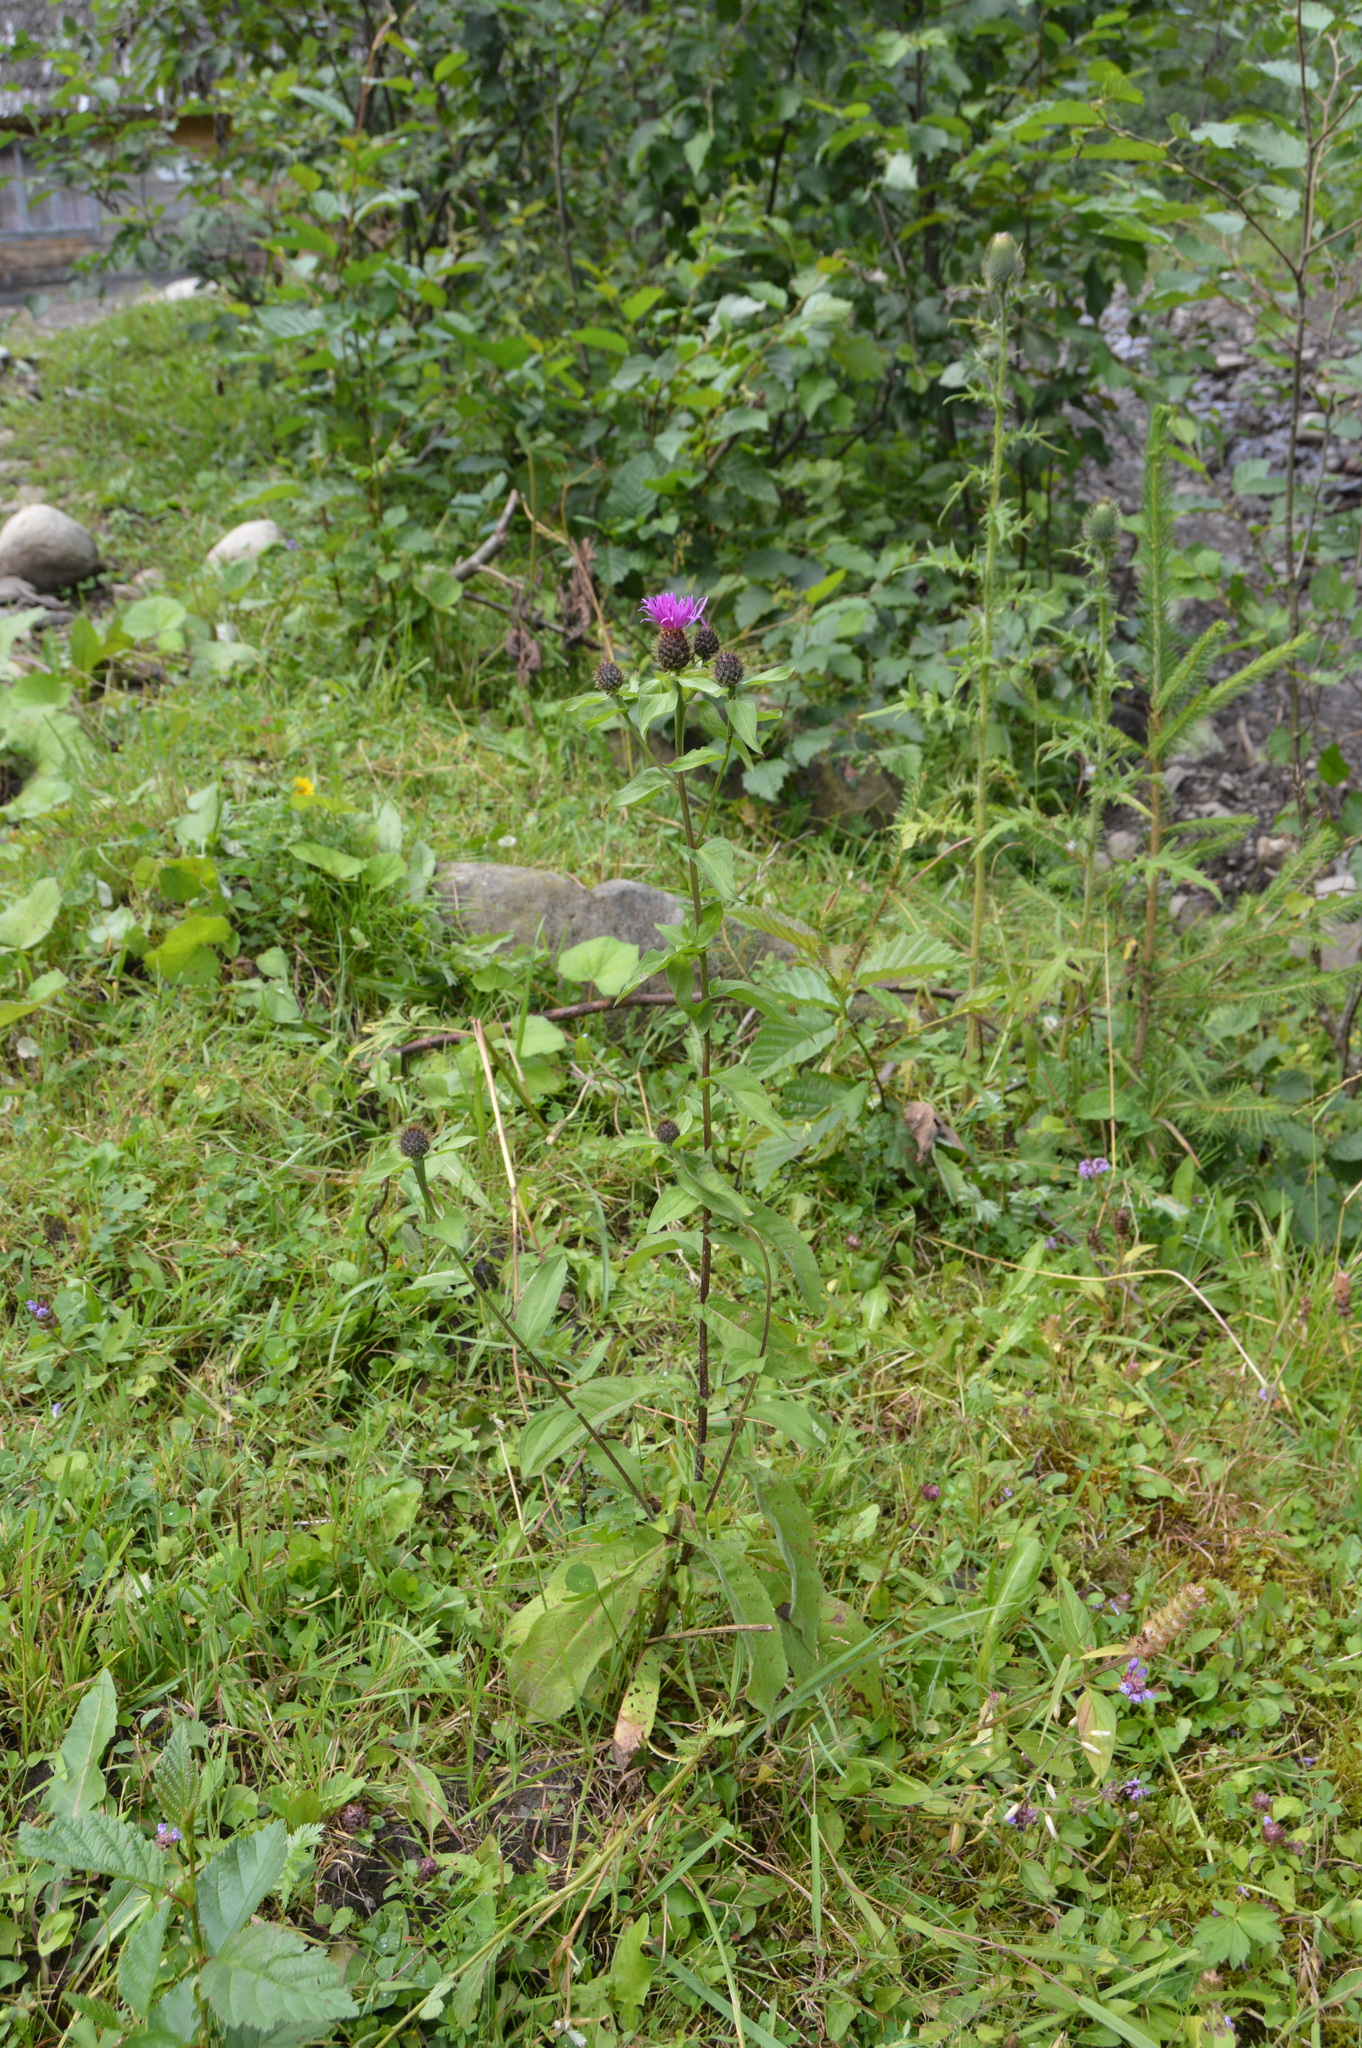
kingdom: Plantae
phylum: Tracheophyta
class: Magnoliopsida
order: Asterales
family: Asteraceae
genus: Centaurea
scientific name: Centaurea phrygia
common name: Wig knapweed
